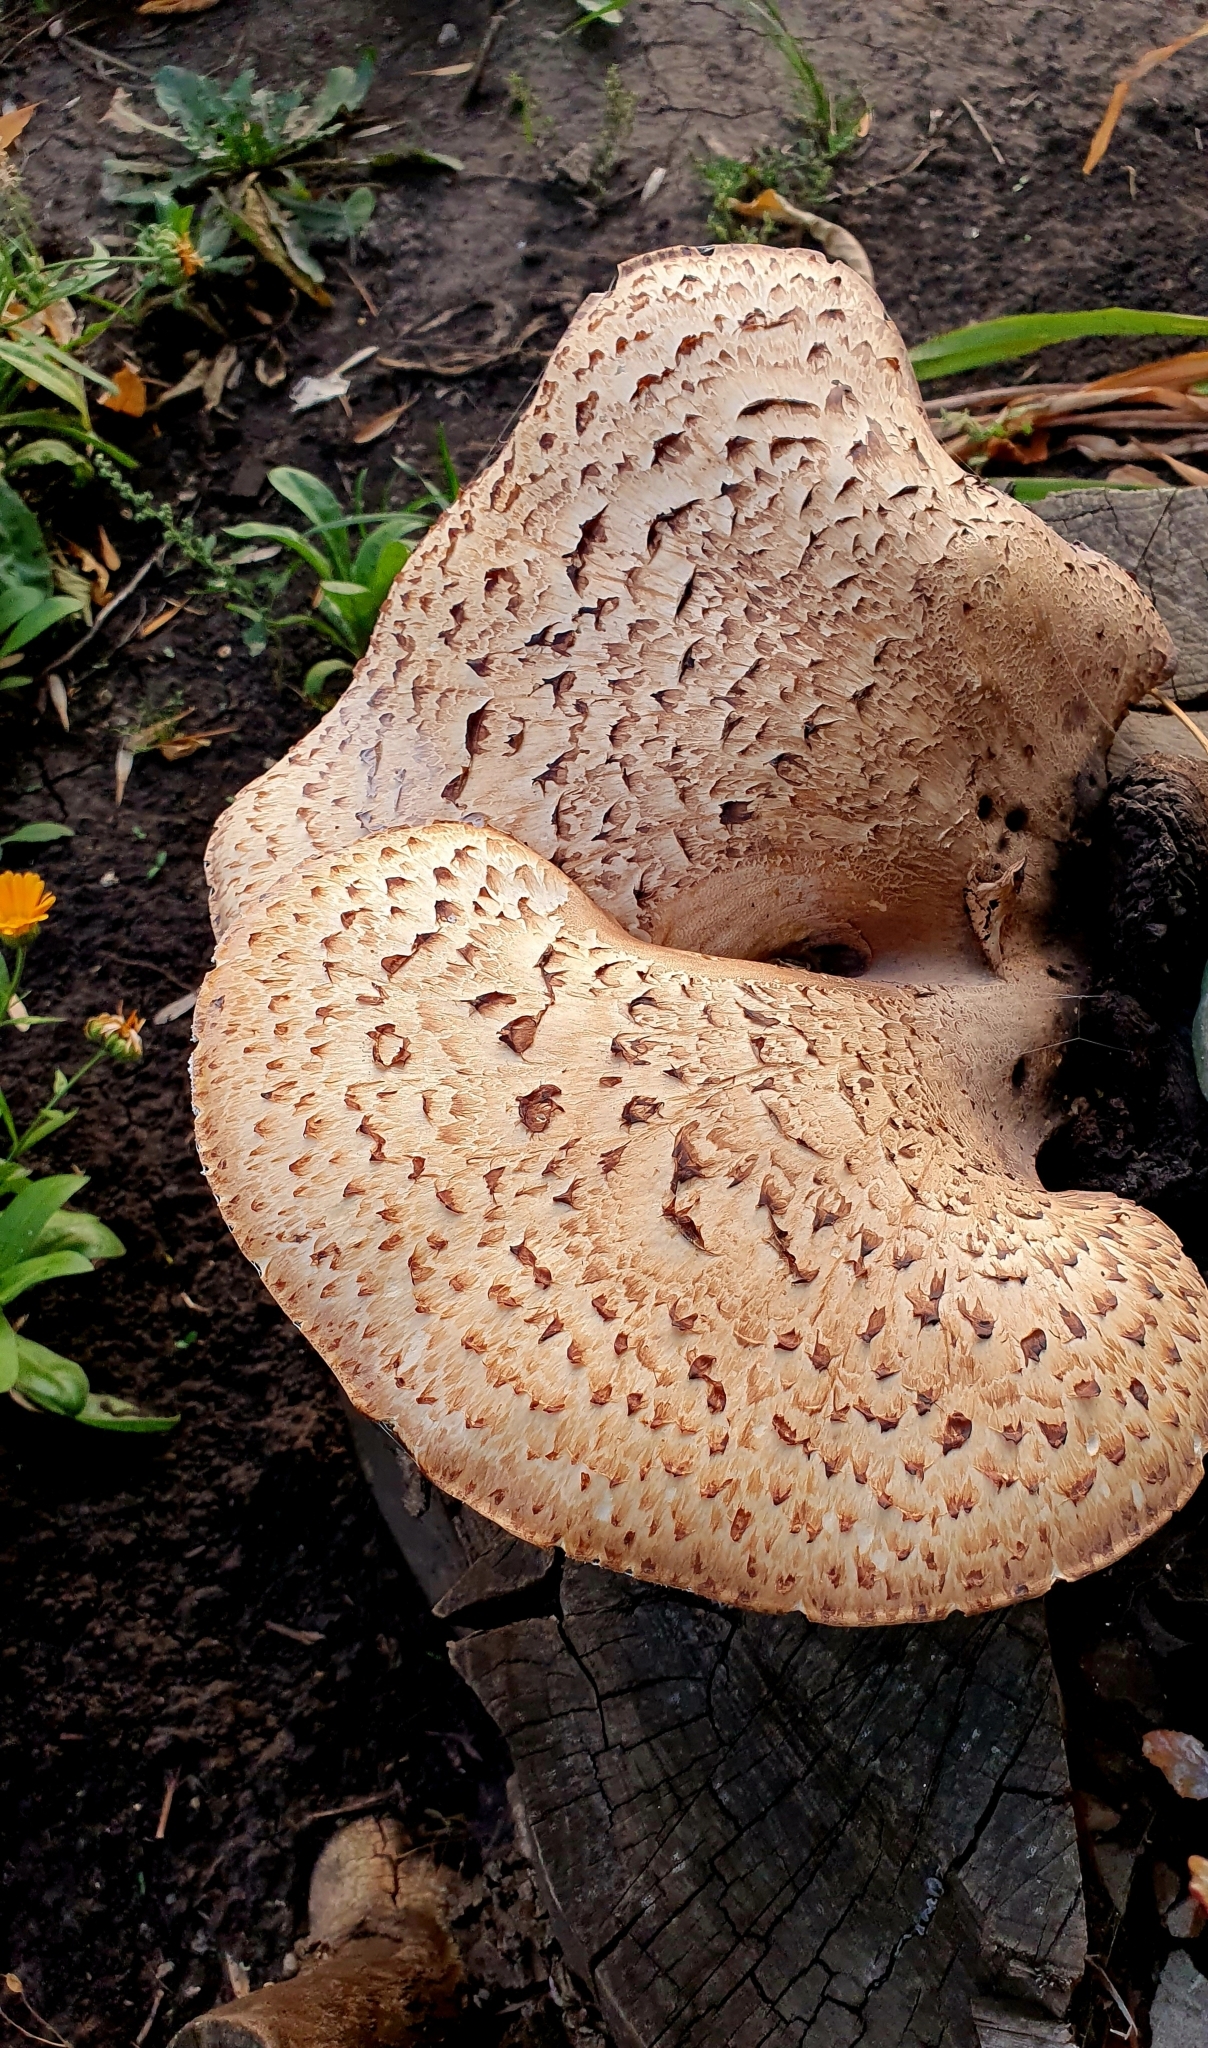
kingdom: Fungi
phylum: Basidiomycota
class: Agaricomycetes
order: Polyporales
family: Polyporaceae
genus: Cerioporus
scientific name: Cerioporus squamosus
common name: Dryad's saddle
